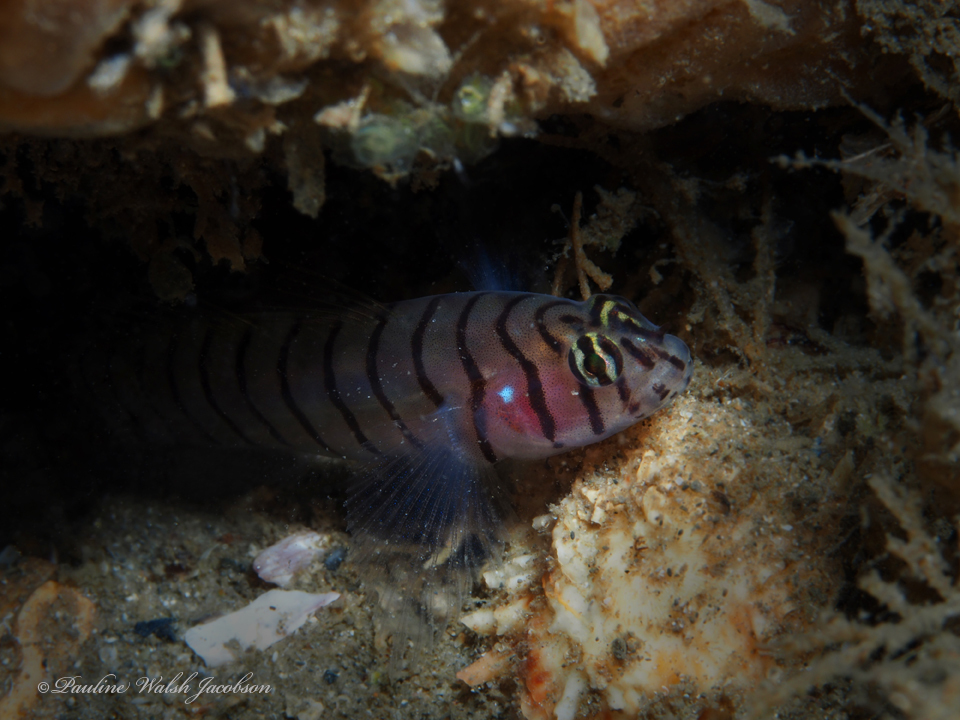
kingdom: Animalia
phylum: Chordata
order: Perciformes
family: Gobiidae
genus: Tigrigobius
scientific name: Tigrigobius macrodon
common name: Tiger goby
